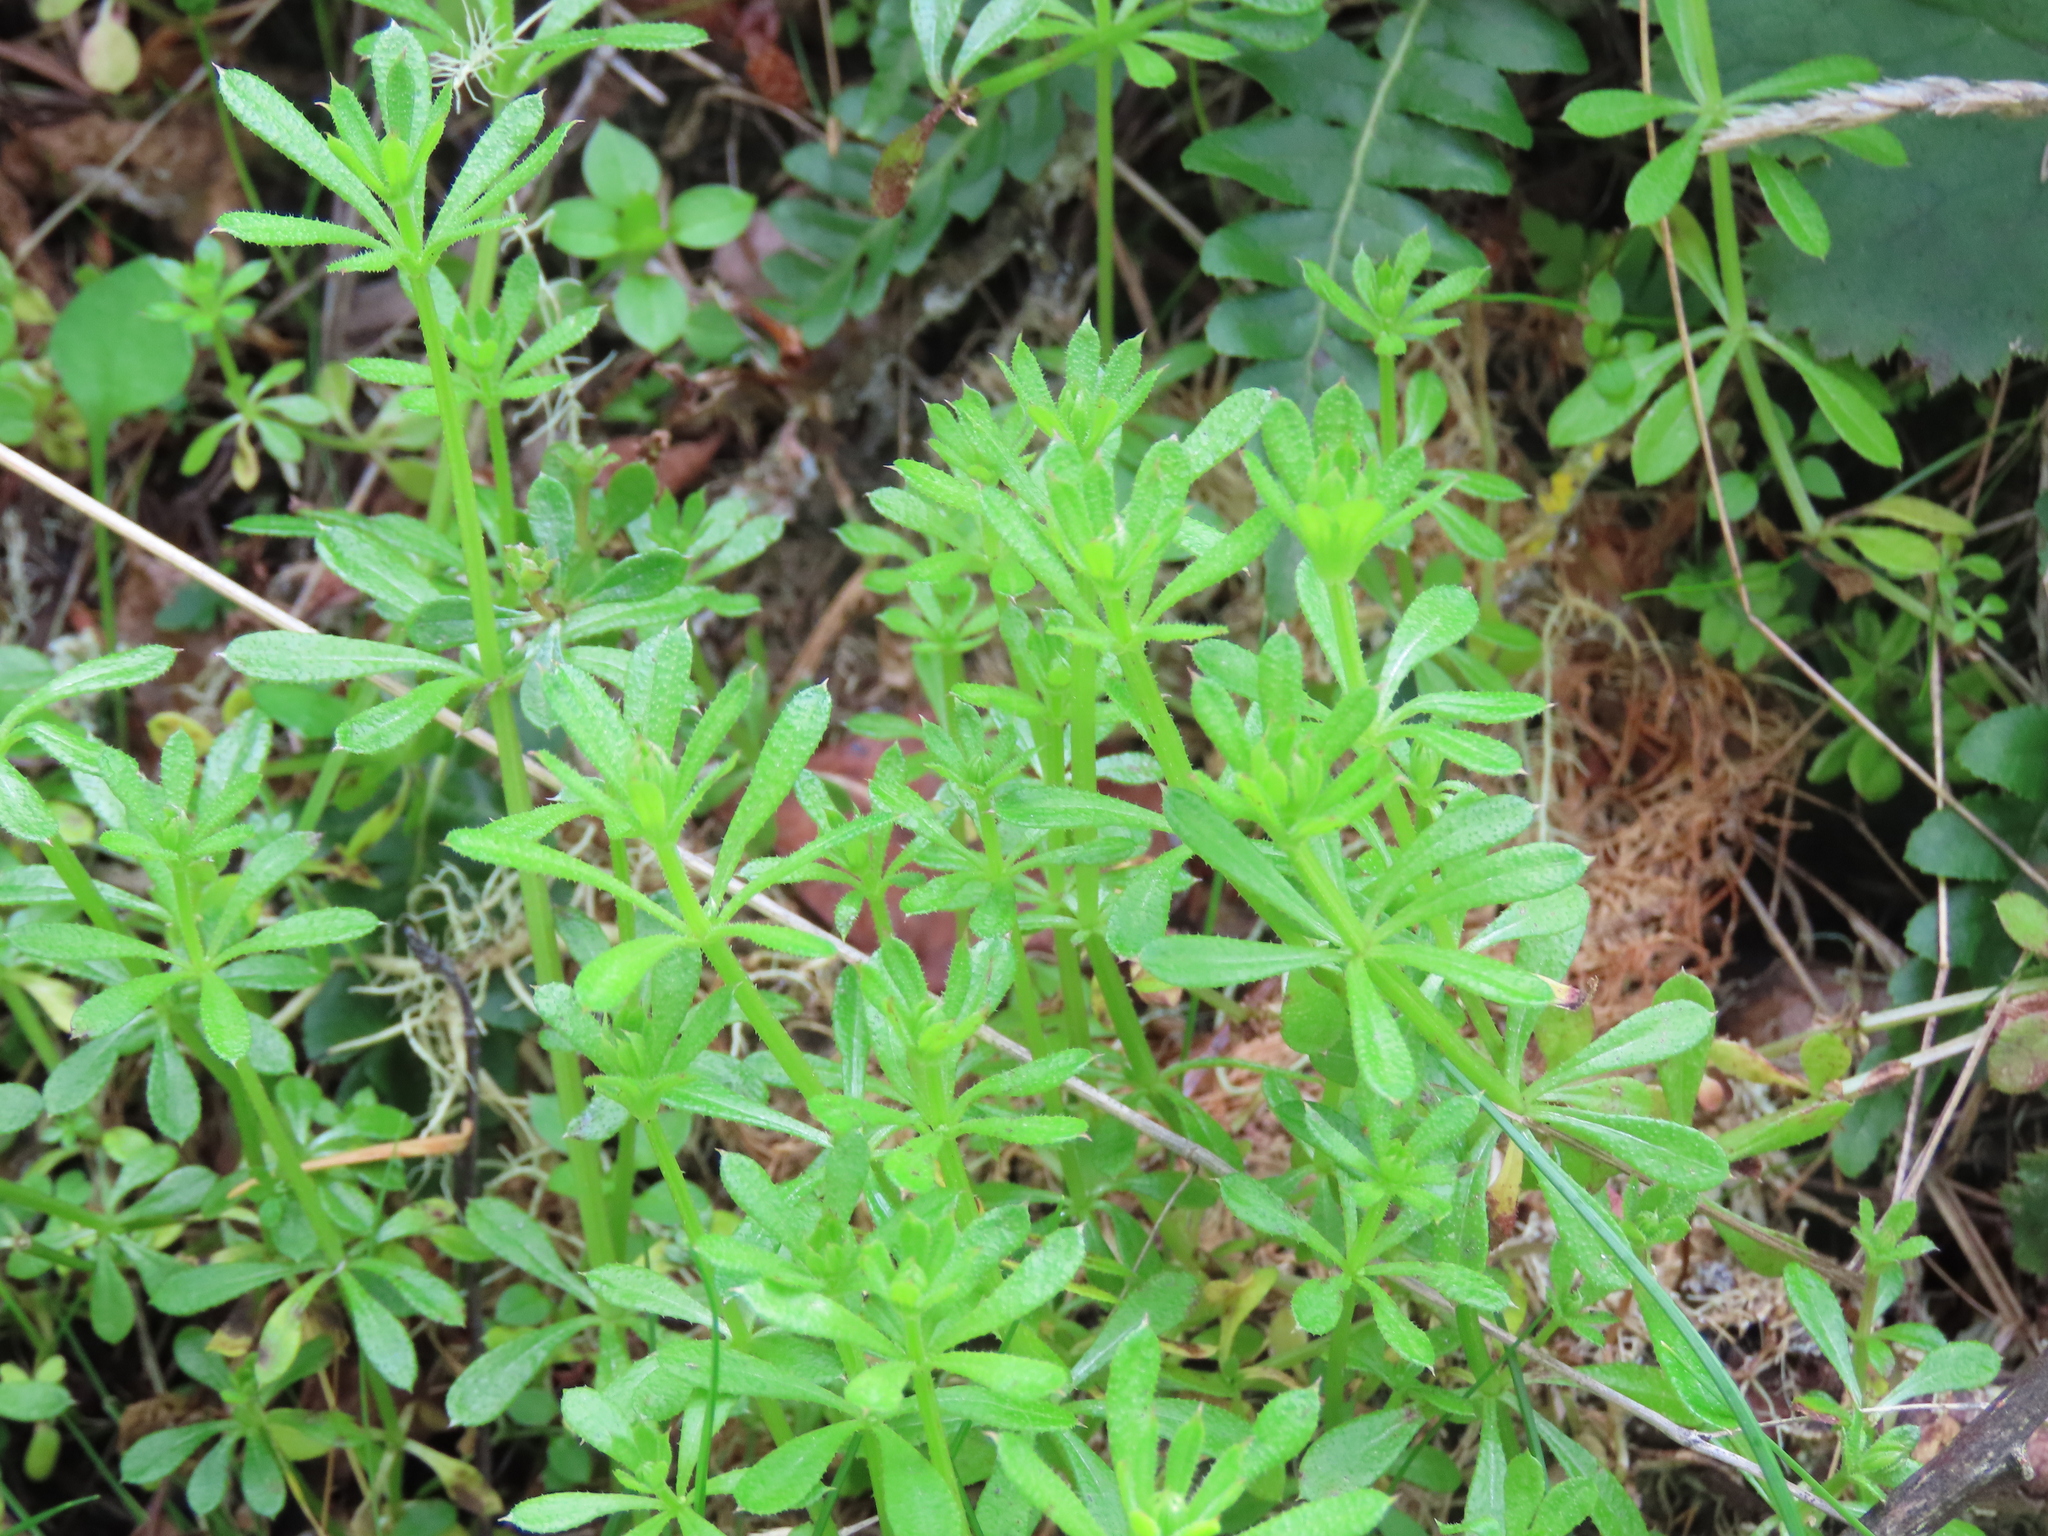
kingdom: Plantae
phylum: Tracheophyta
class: Magnoliopsida
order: Gentianales
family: Rubiaceae
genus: Galium
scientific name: Galium aparine
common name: Cleavers
